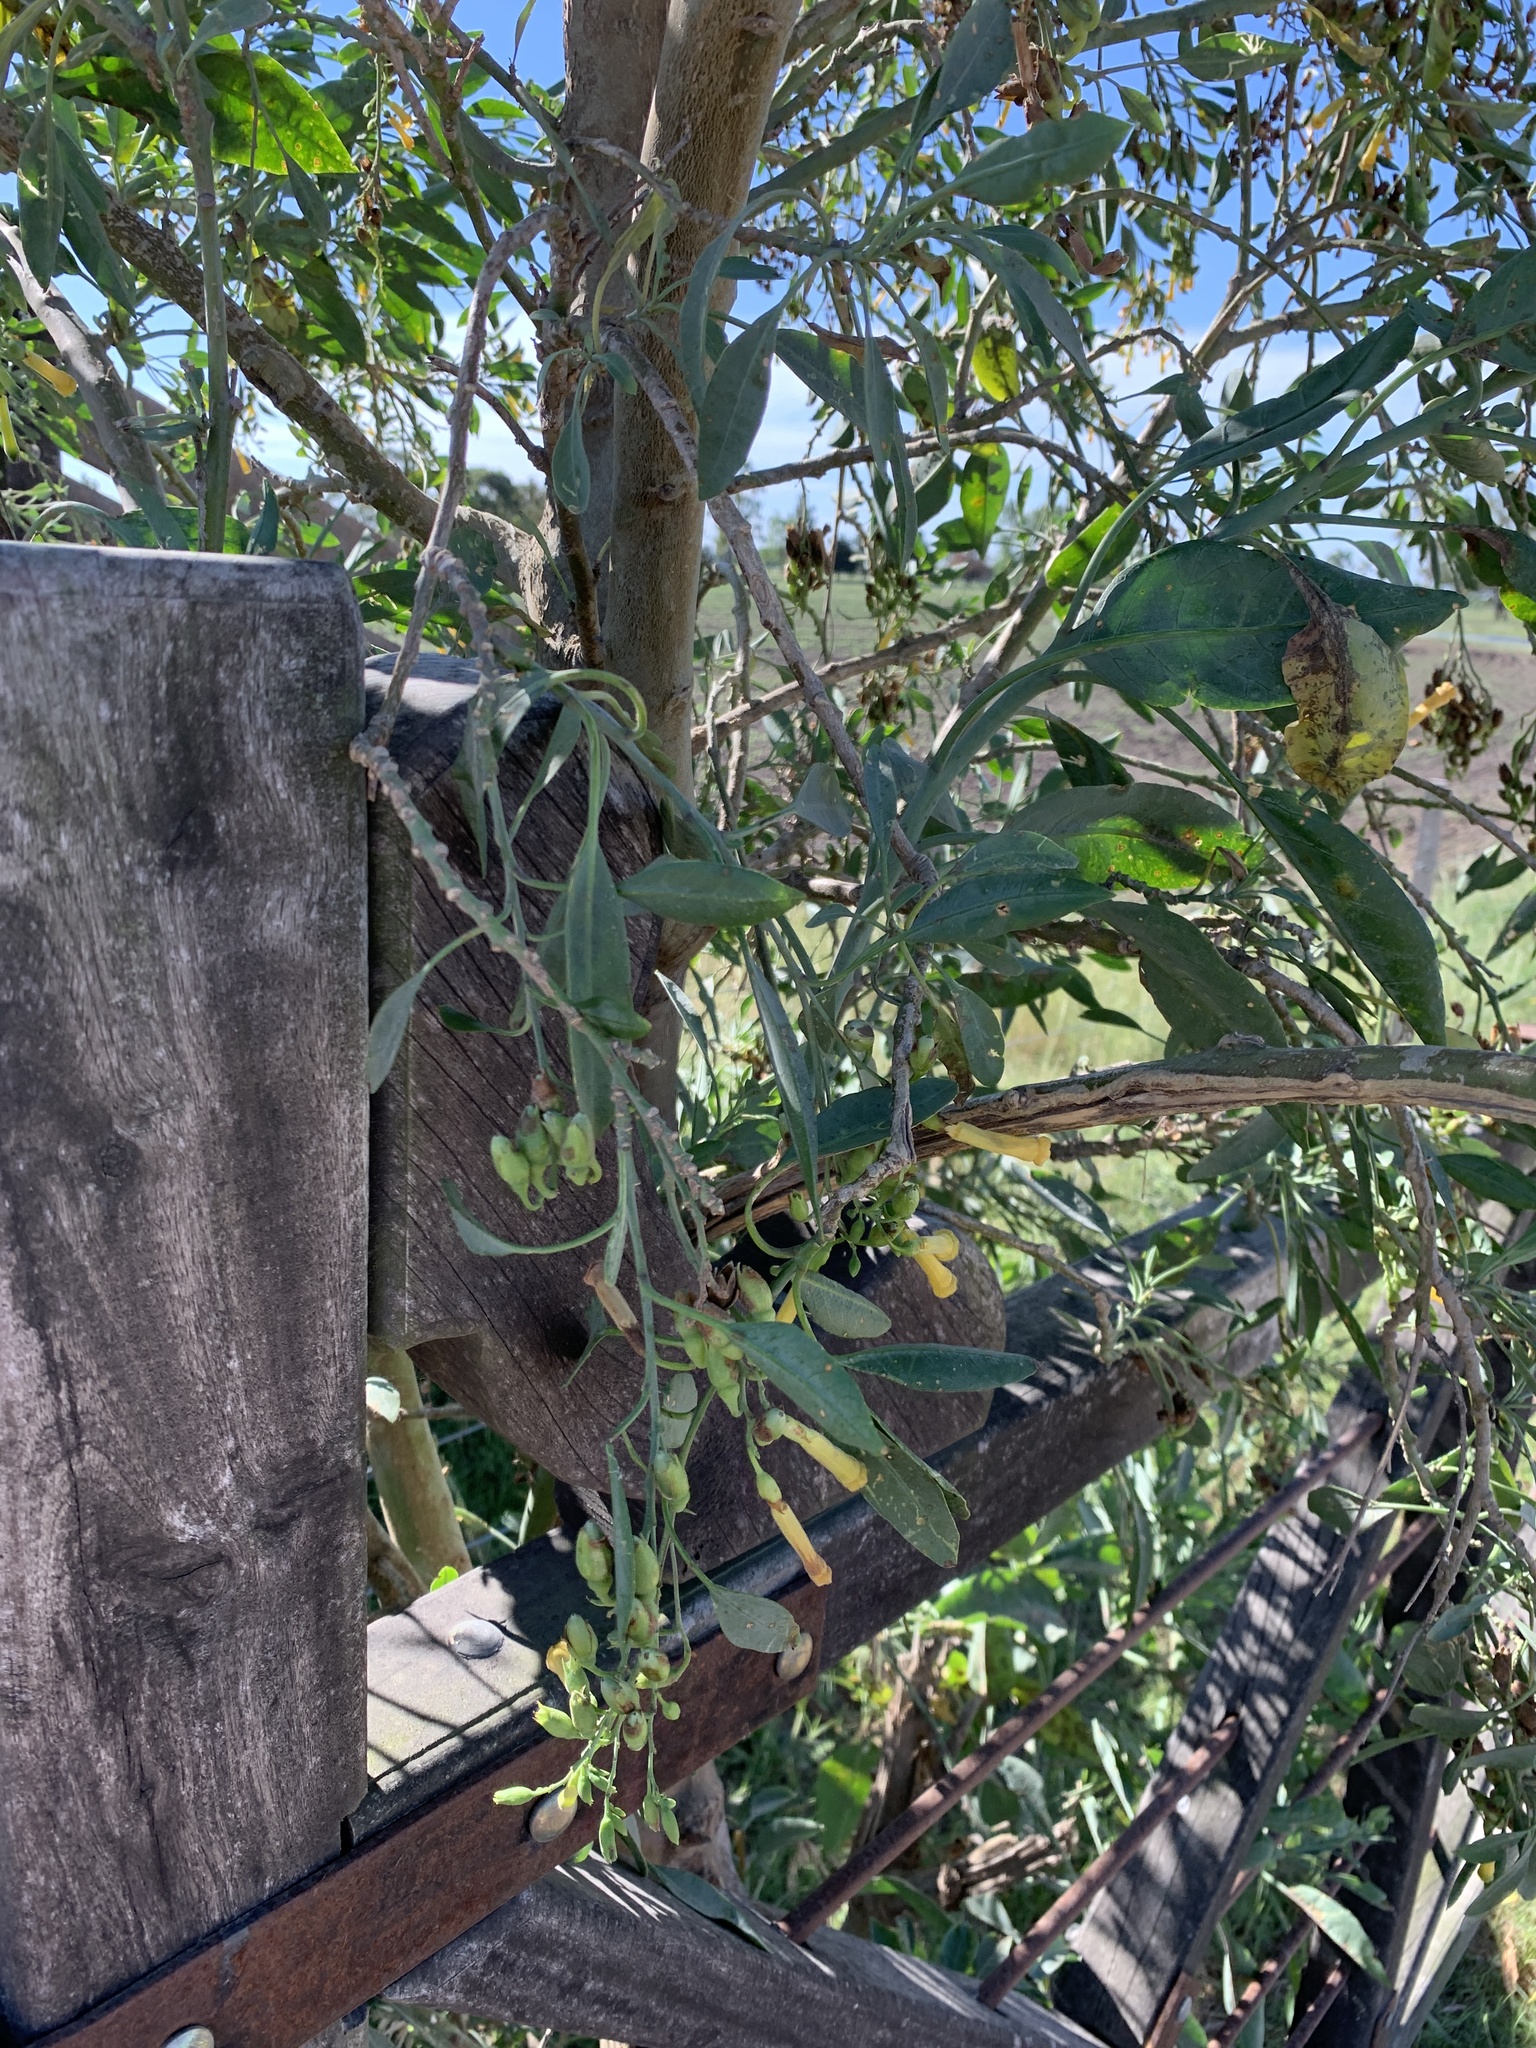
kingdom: Plantae
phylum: Tracheophyta
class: Magnoliopsida
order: Solanales
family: Solanaceae
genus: Nicotiana
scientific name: Nicotiana glauca
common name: Tree tobacco
